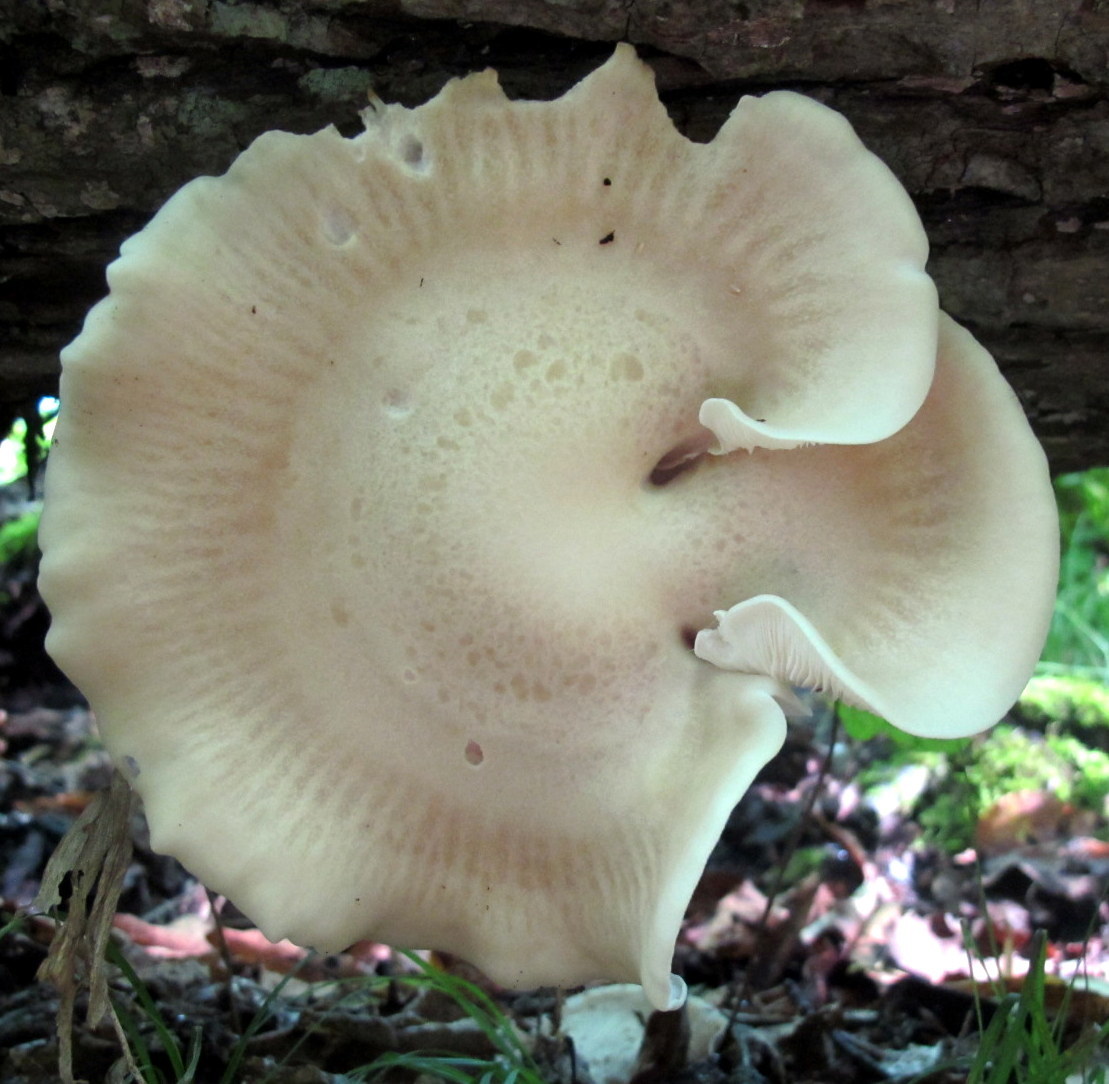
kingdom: Fungi
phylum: Basidiomycota
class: Agaricomycetes
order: Agaricales
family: Lyophyllaceae
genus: Hypsizygus
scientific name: Hypsizygus marmoreus
